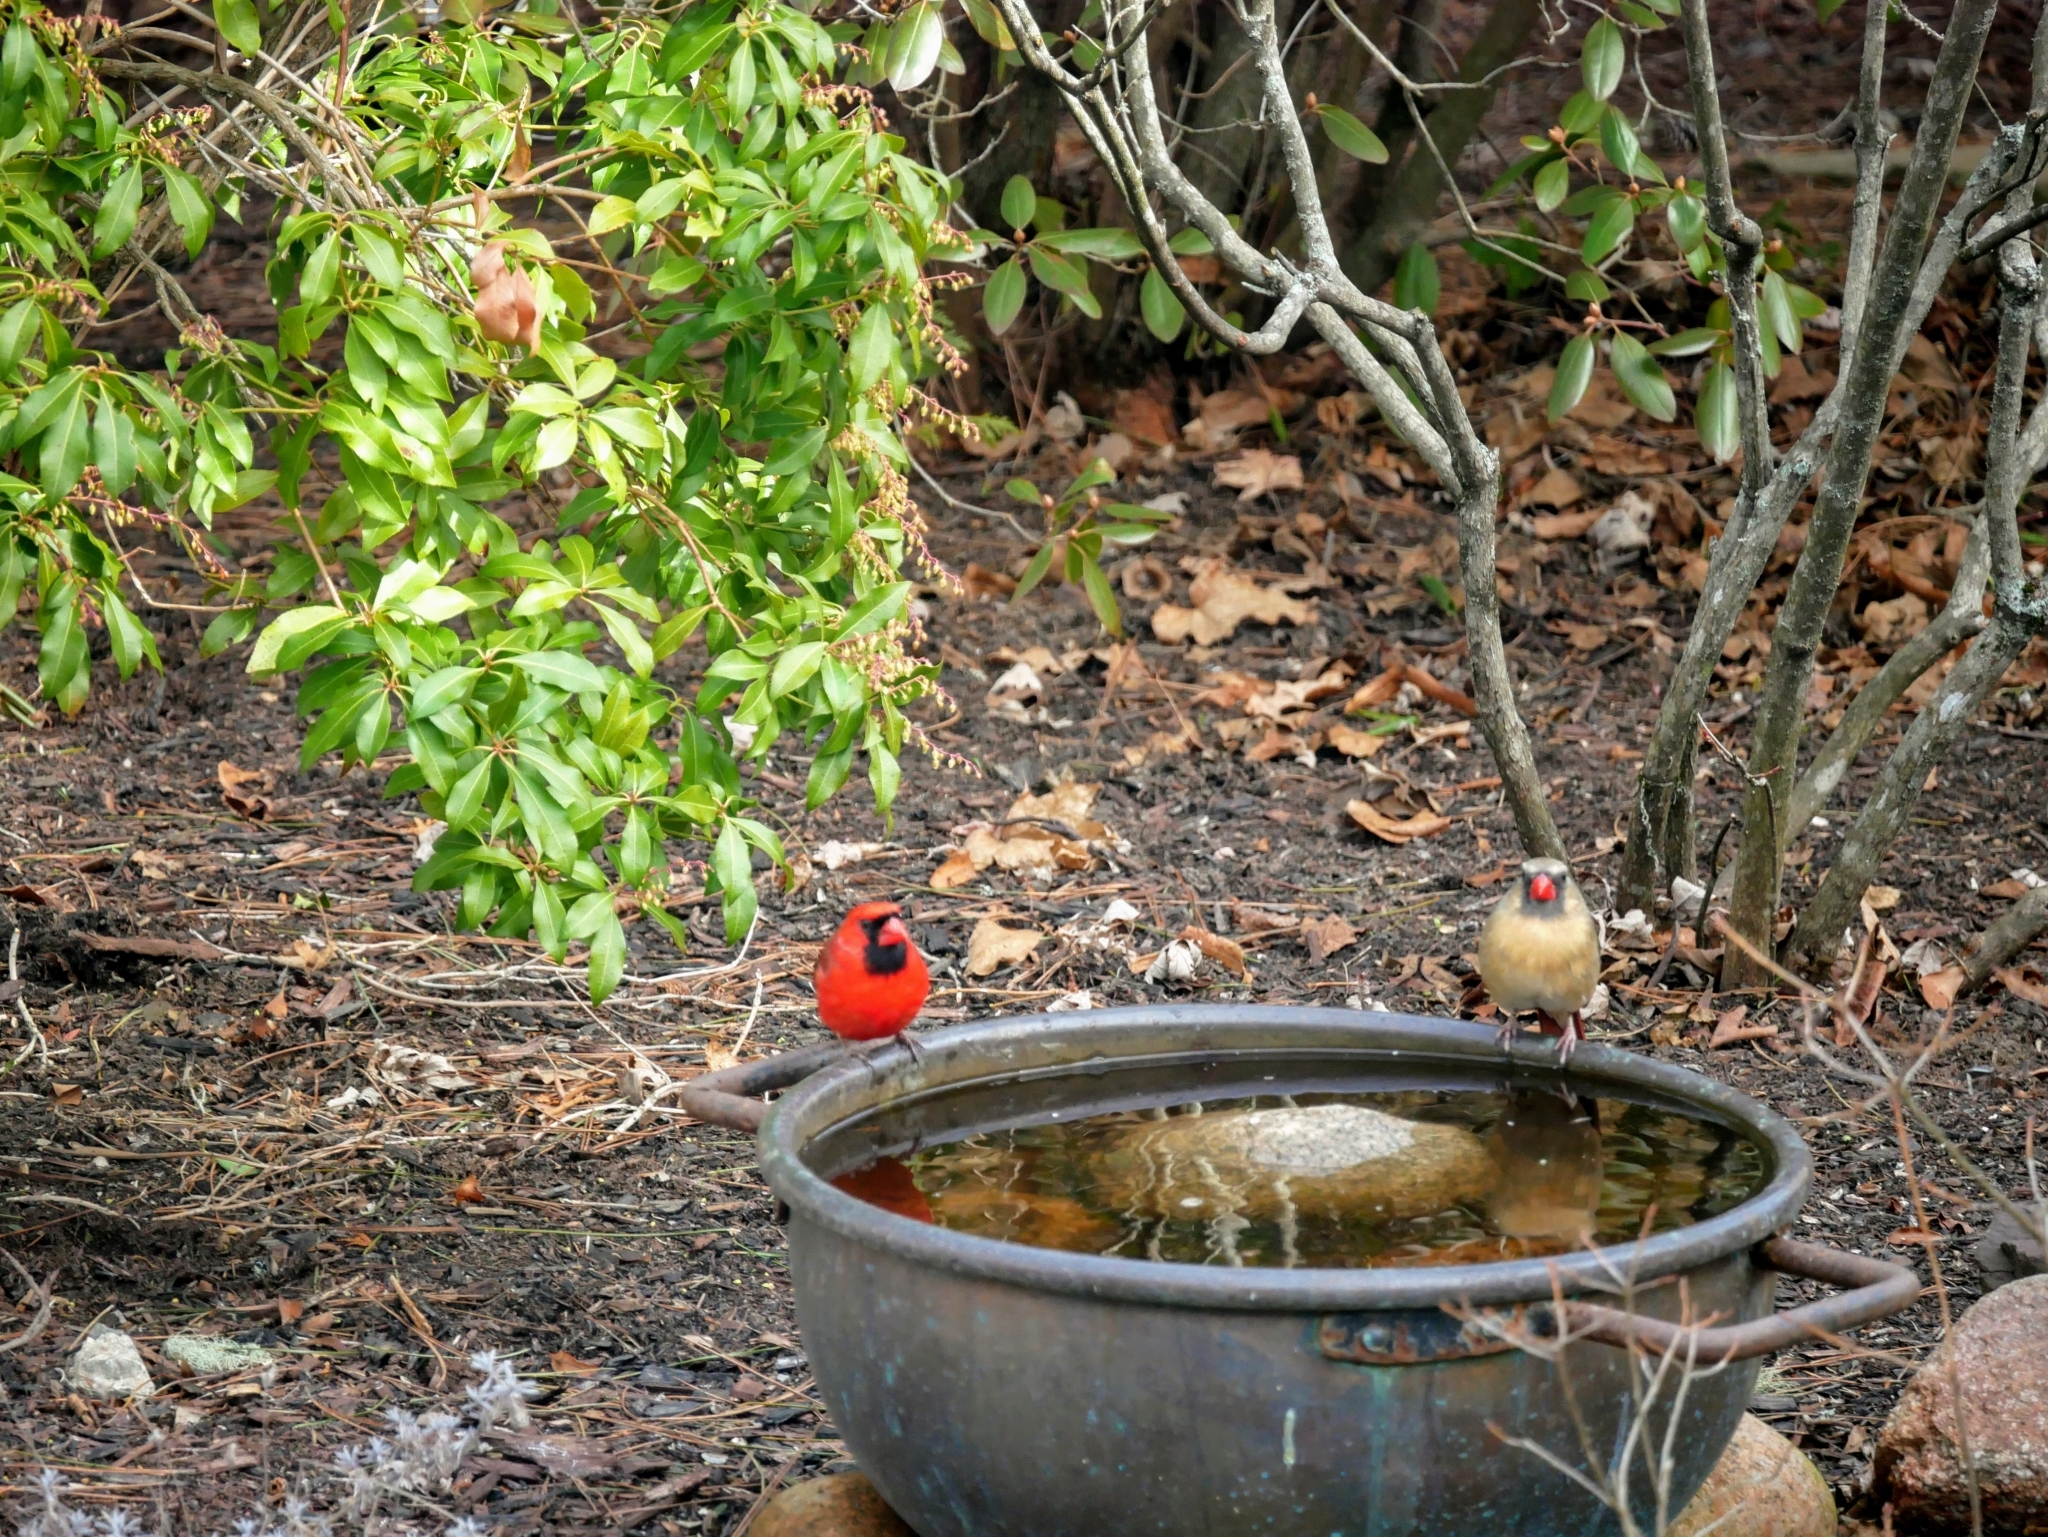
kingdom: Animalia
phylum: Chordata
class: Aves
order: Passeriformes
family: Cardinalidae
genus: Cardinalis
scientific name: Cardinalis cardinalis
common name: Northern cardinal
